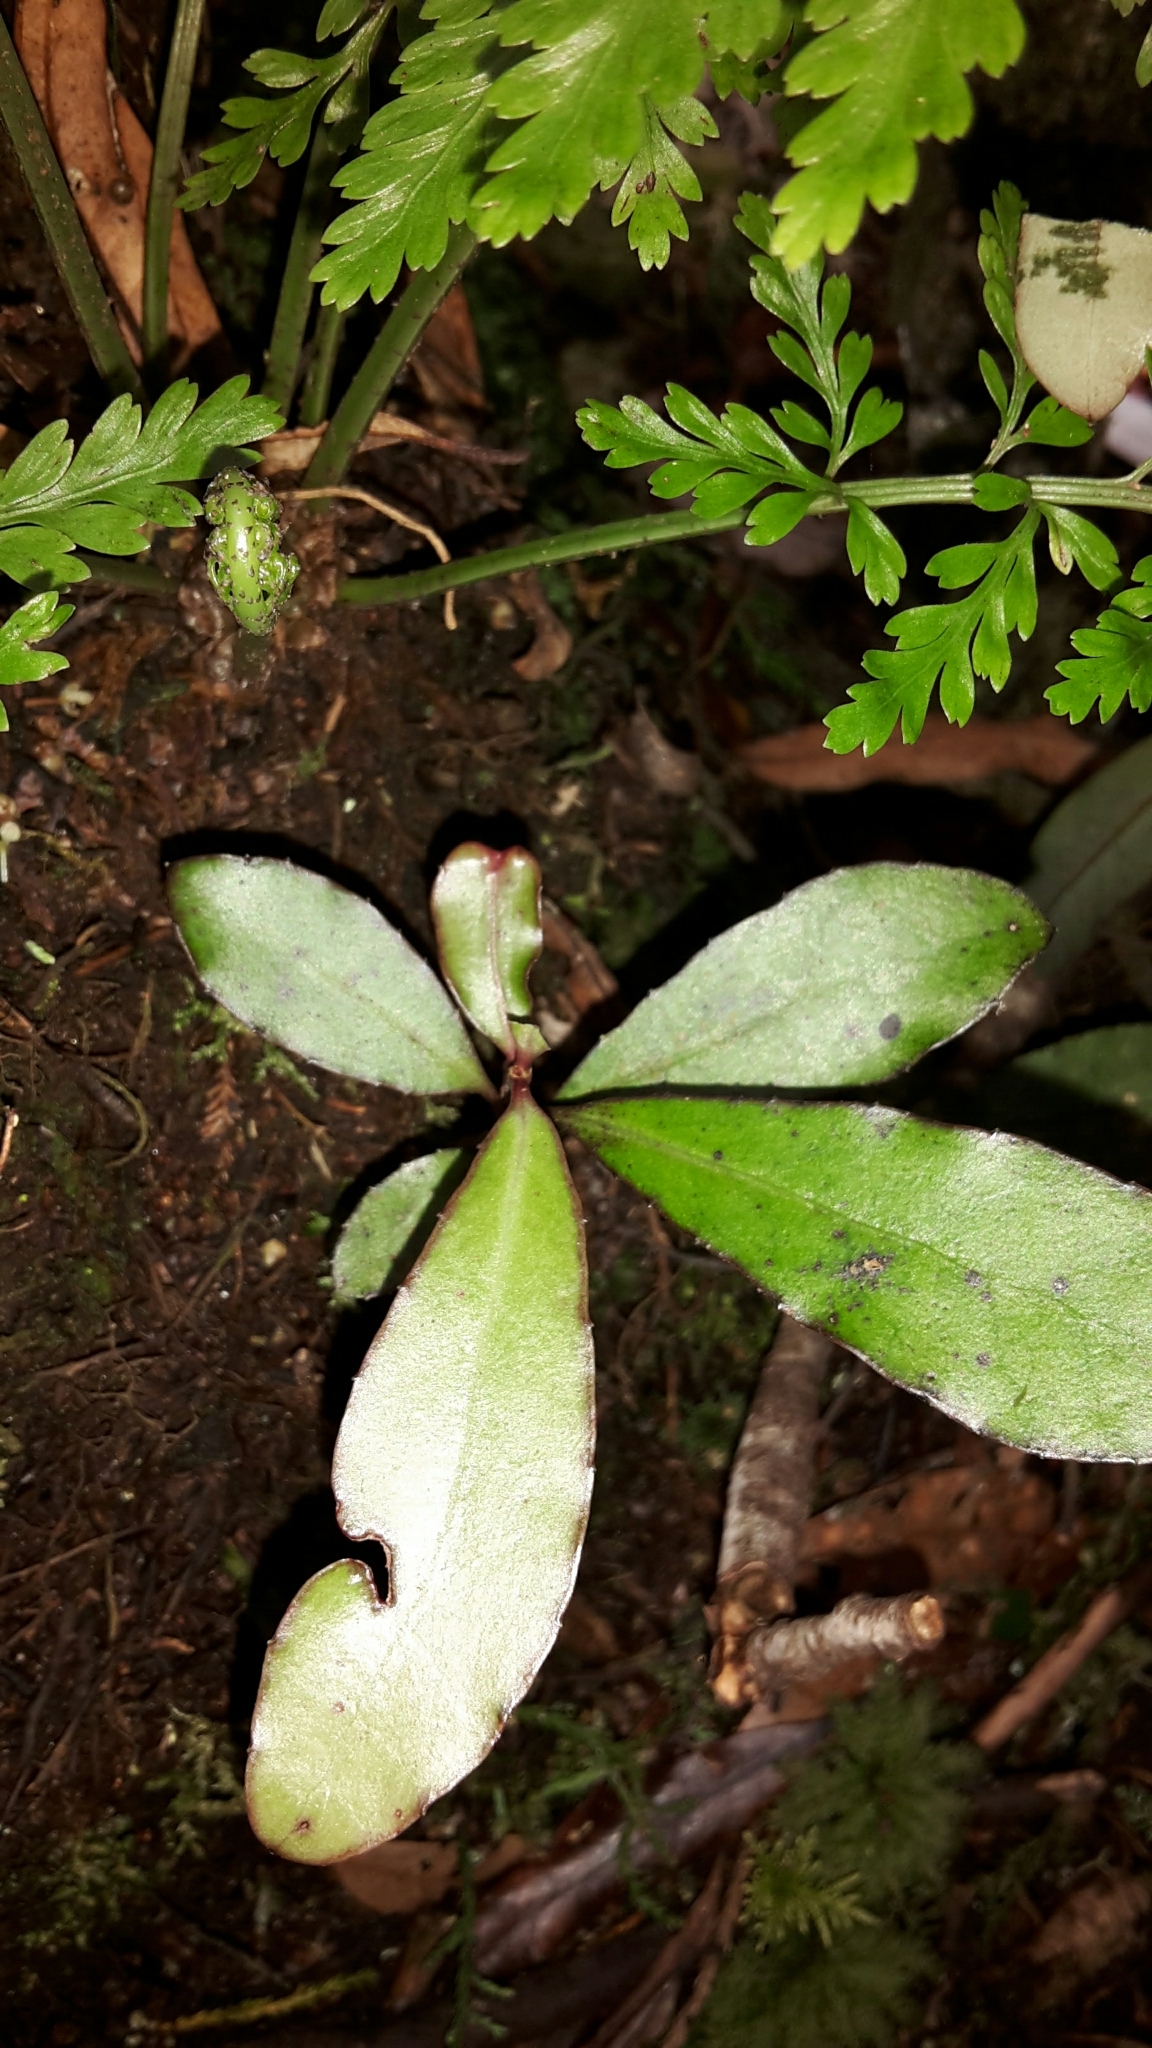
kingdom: Plantae
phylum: Tracheophyta
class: Magnoliopsida
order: Asterales
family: Alseuosmiaceae
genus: Alseuosmia
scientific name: Alseuosmia pusilla
